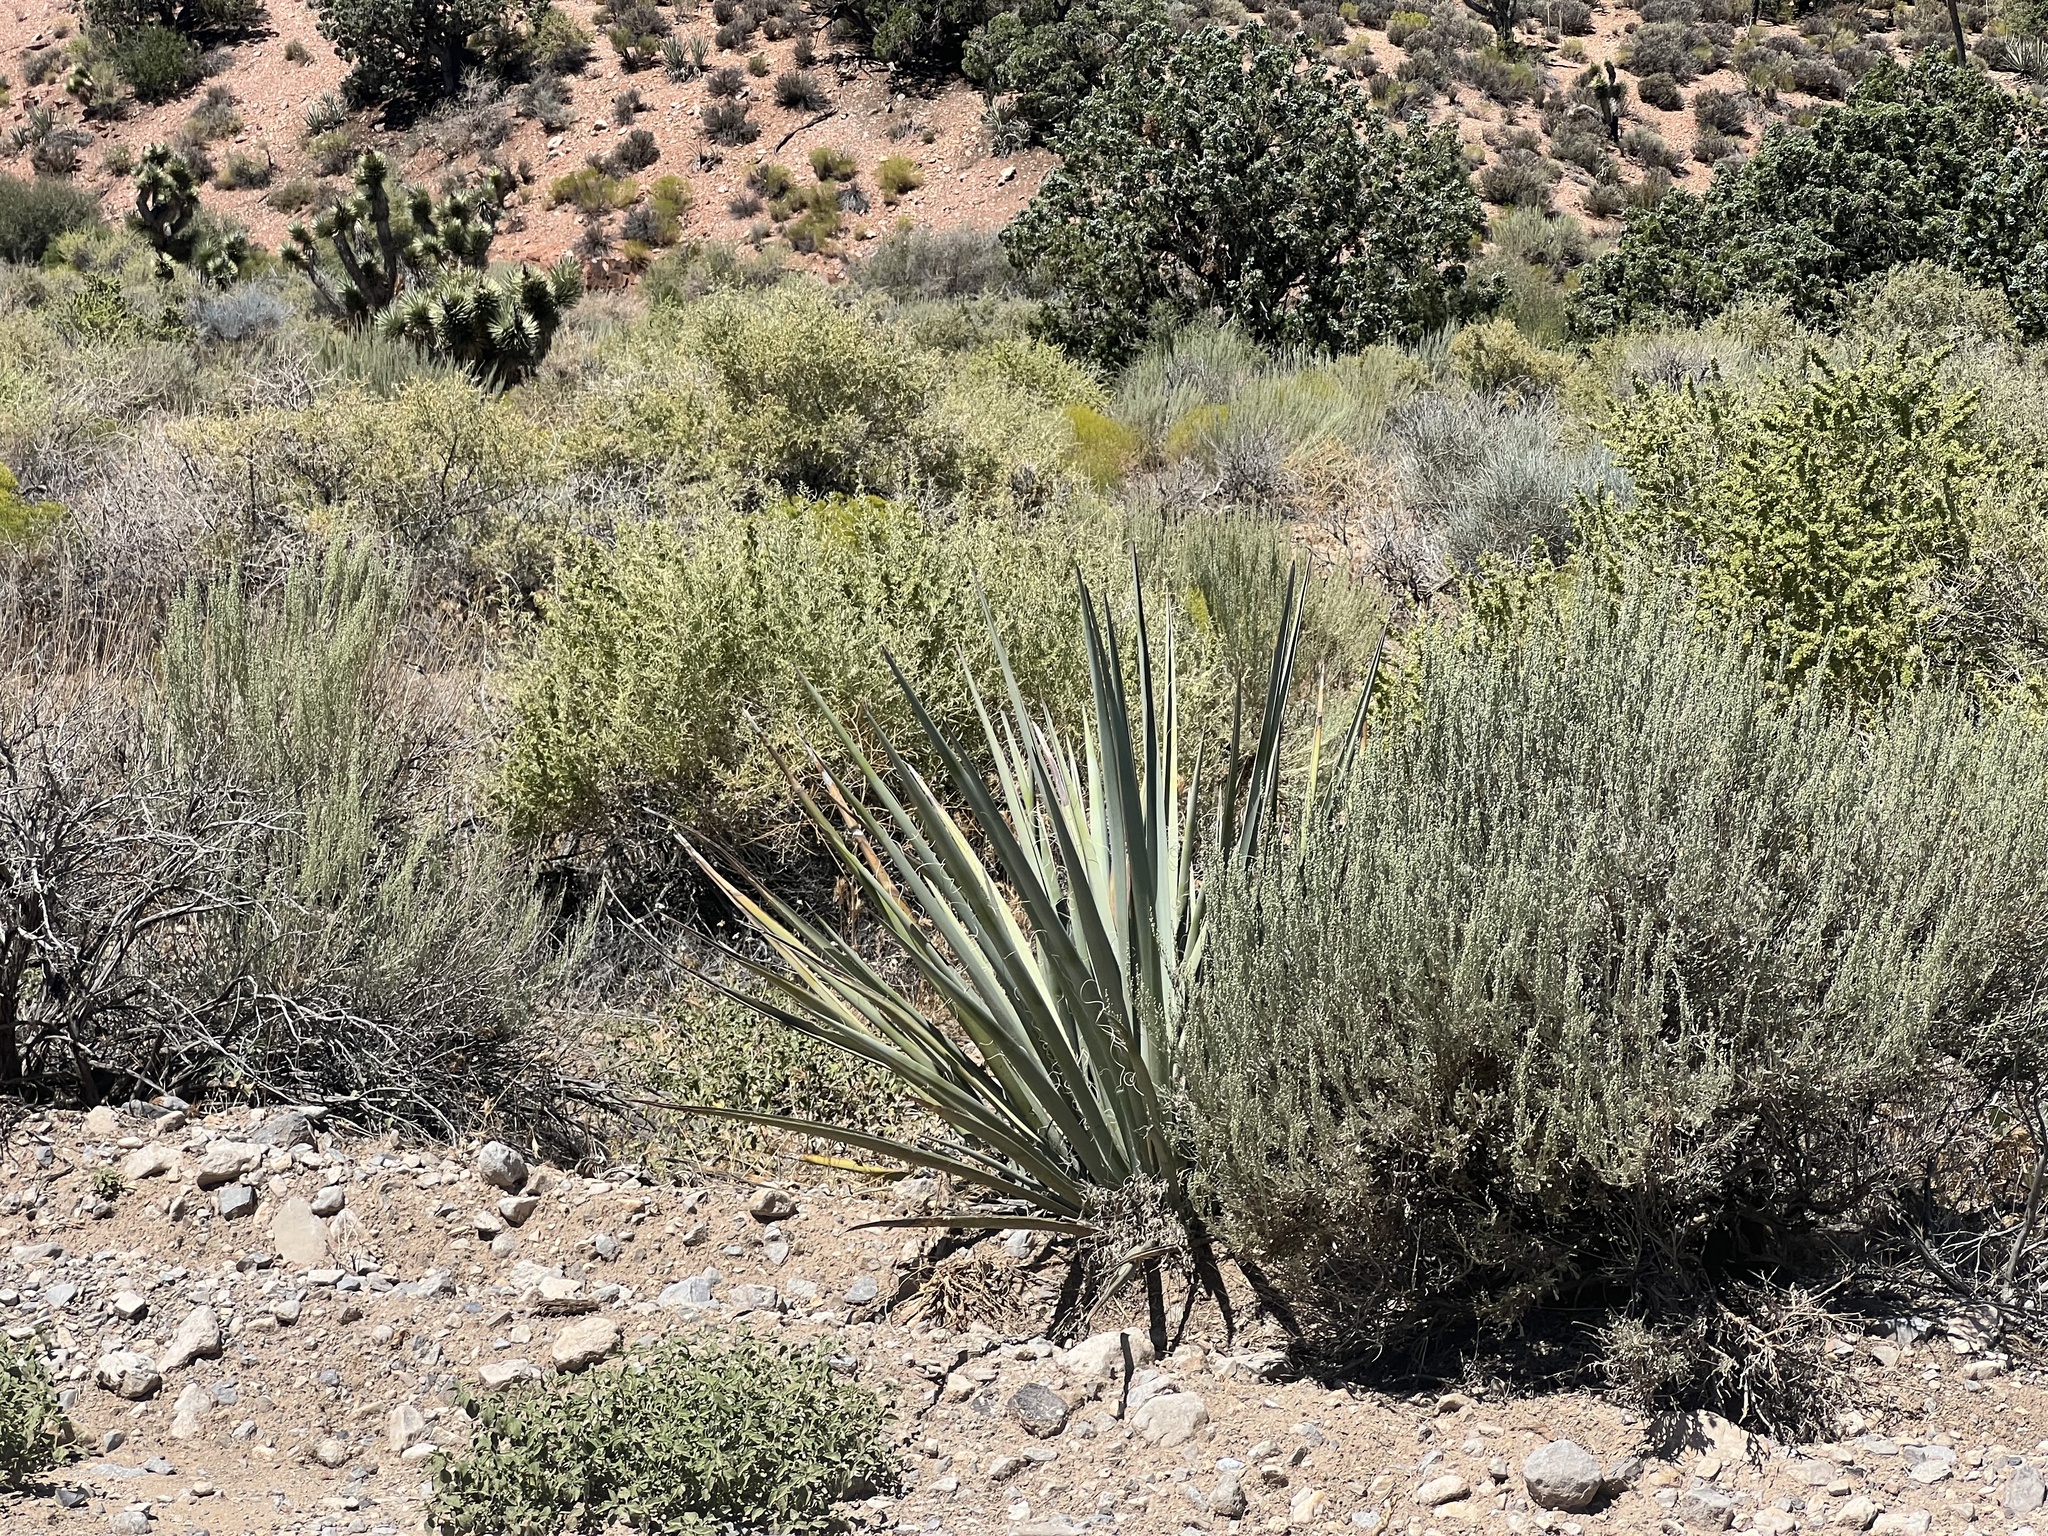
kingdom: Plantae
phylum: Tracheophyta
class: Liliopsida
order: Asparagales
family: Asparagaceae
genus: Yucca
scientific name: Yucca baccata
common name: Banana yucca
